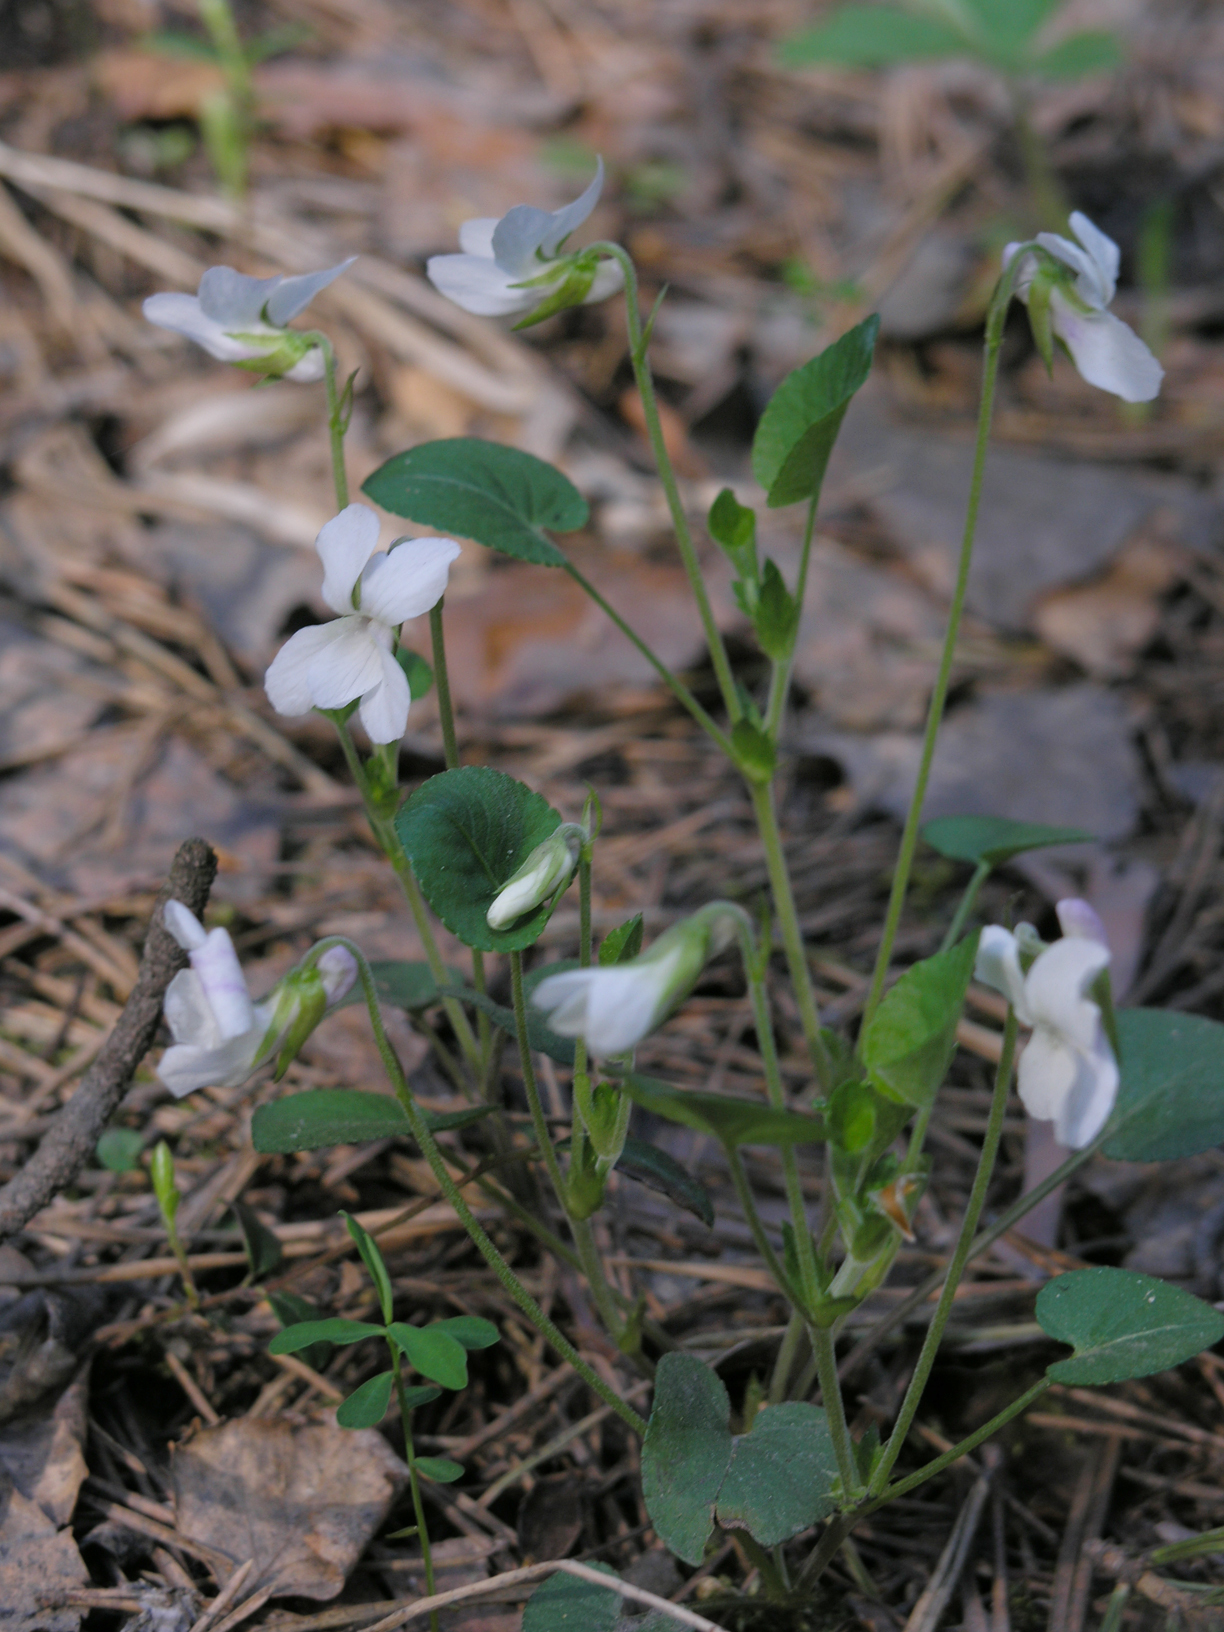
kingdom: Plantae
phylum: Tracheophyta
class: Magnoliopsida
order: Malpighiales
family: Violaceae
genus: Viola
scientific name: Viola rupestris
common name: Teesdale violet
